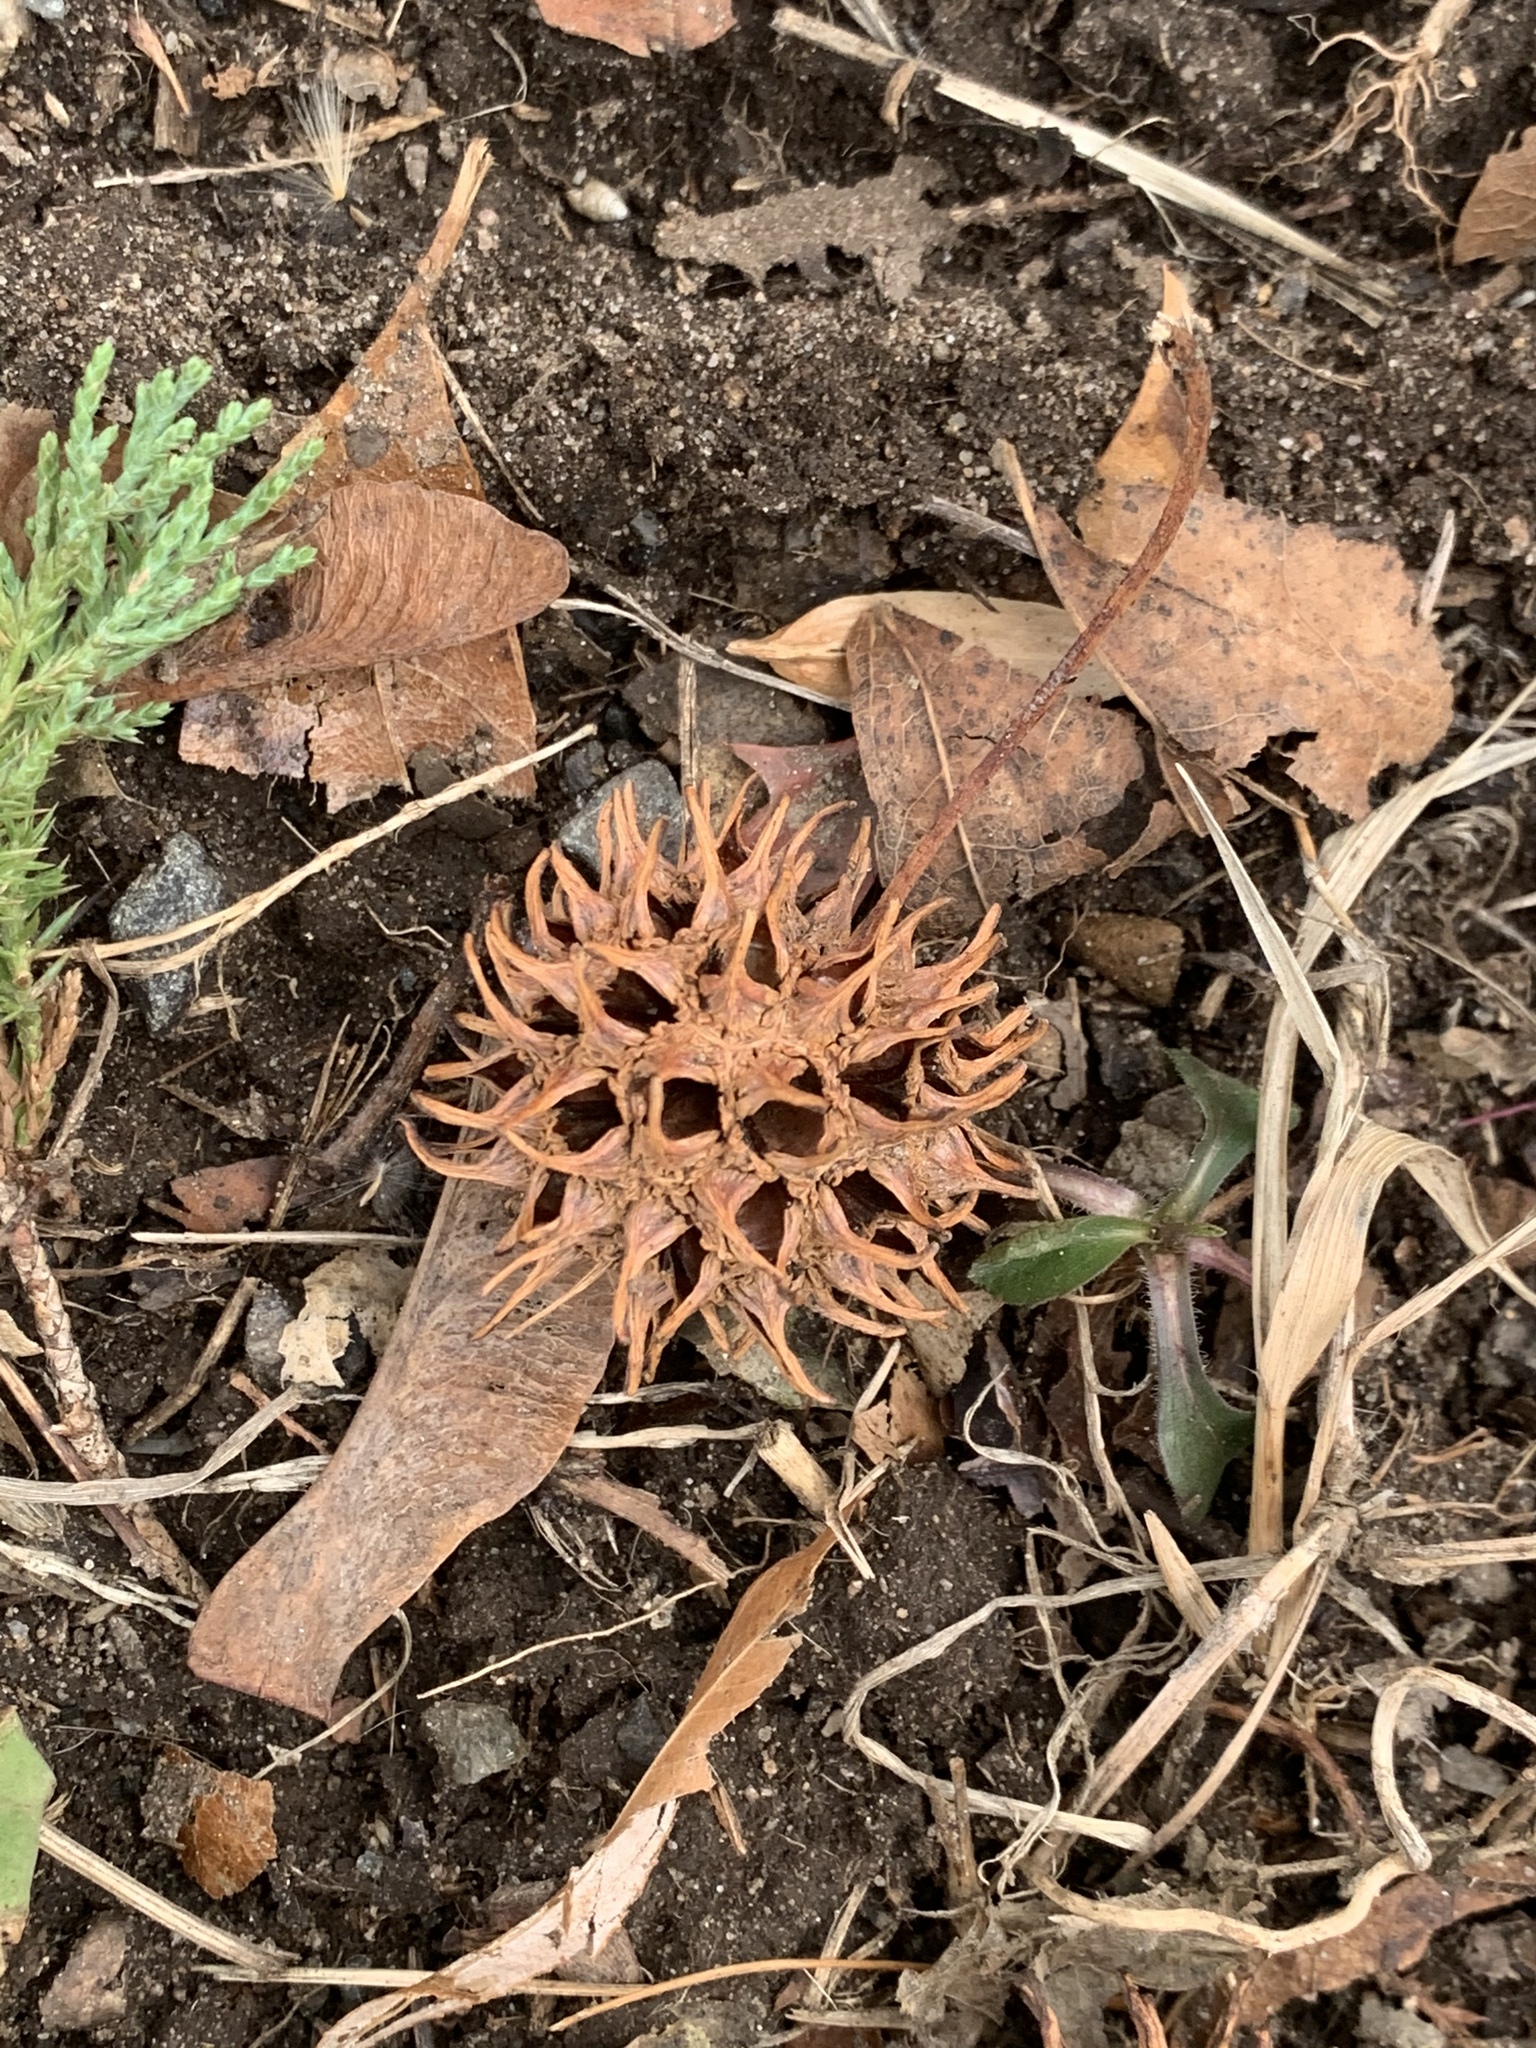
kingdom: Plantae
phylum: Tracheophyta
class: Magnoliopsida
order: Saxifragales
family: Altingiaceae
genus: Liquidambar
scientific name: Liquidambar styraciflua
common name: Sweet gum
